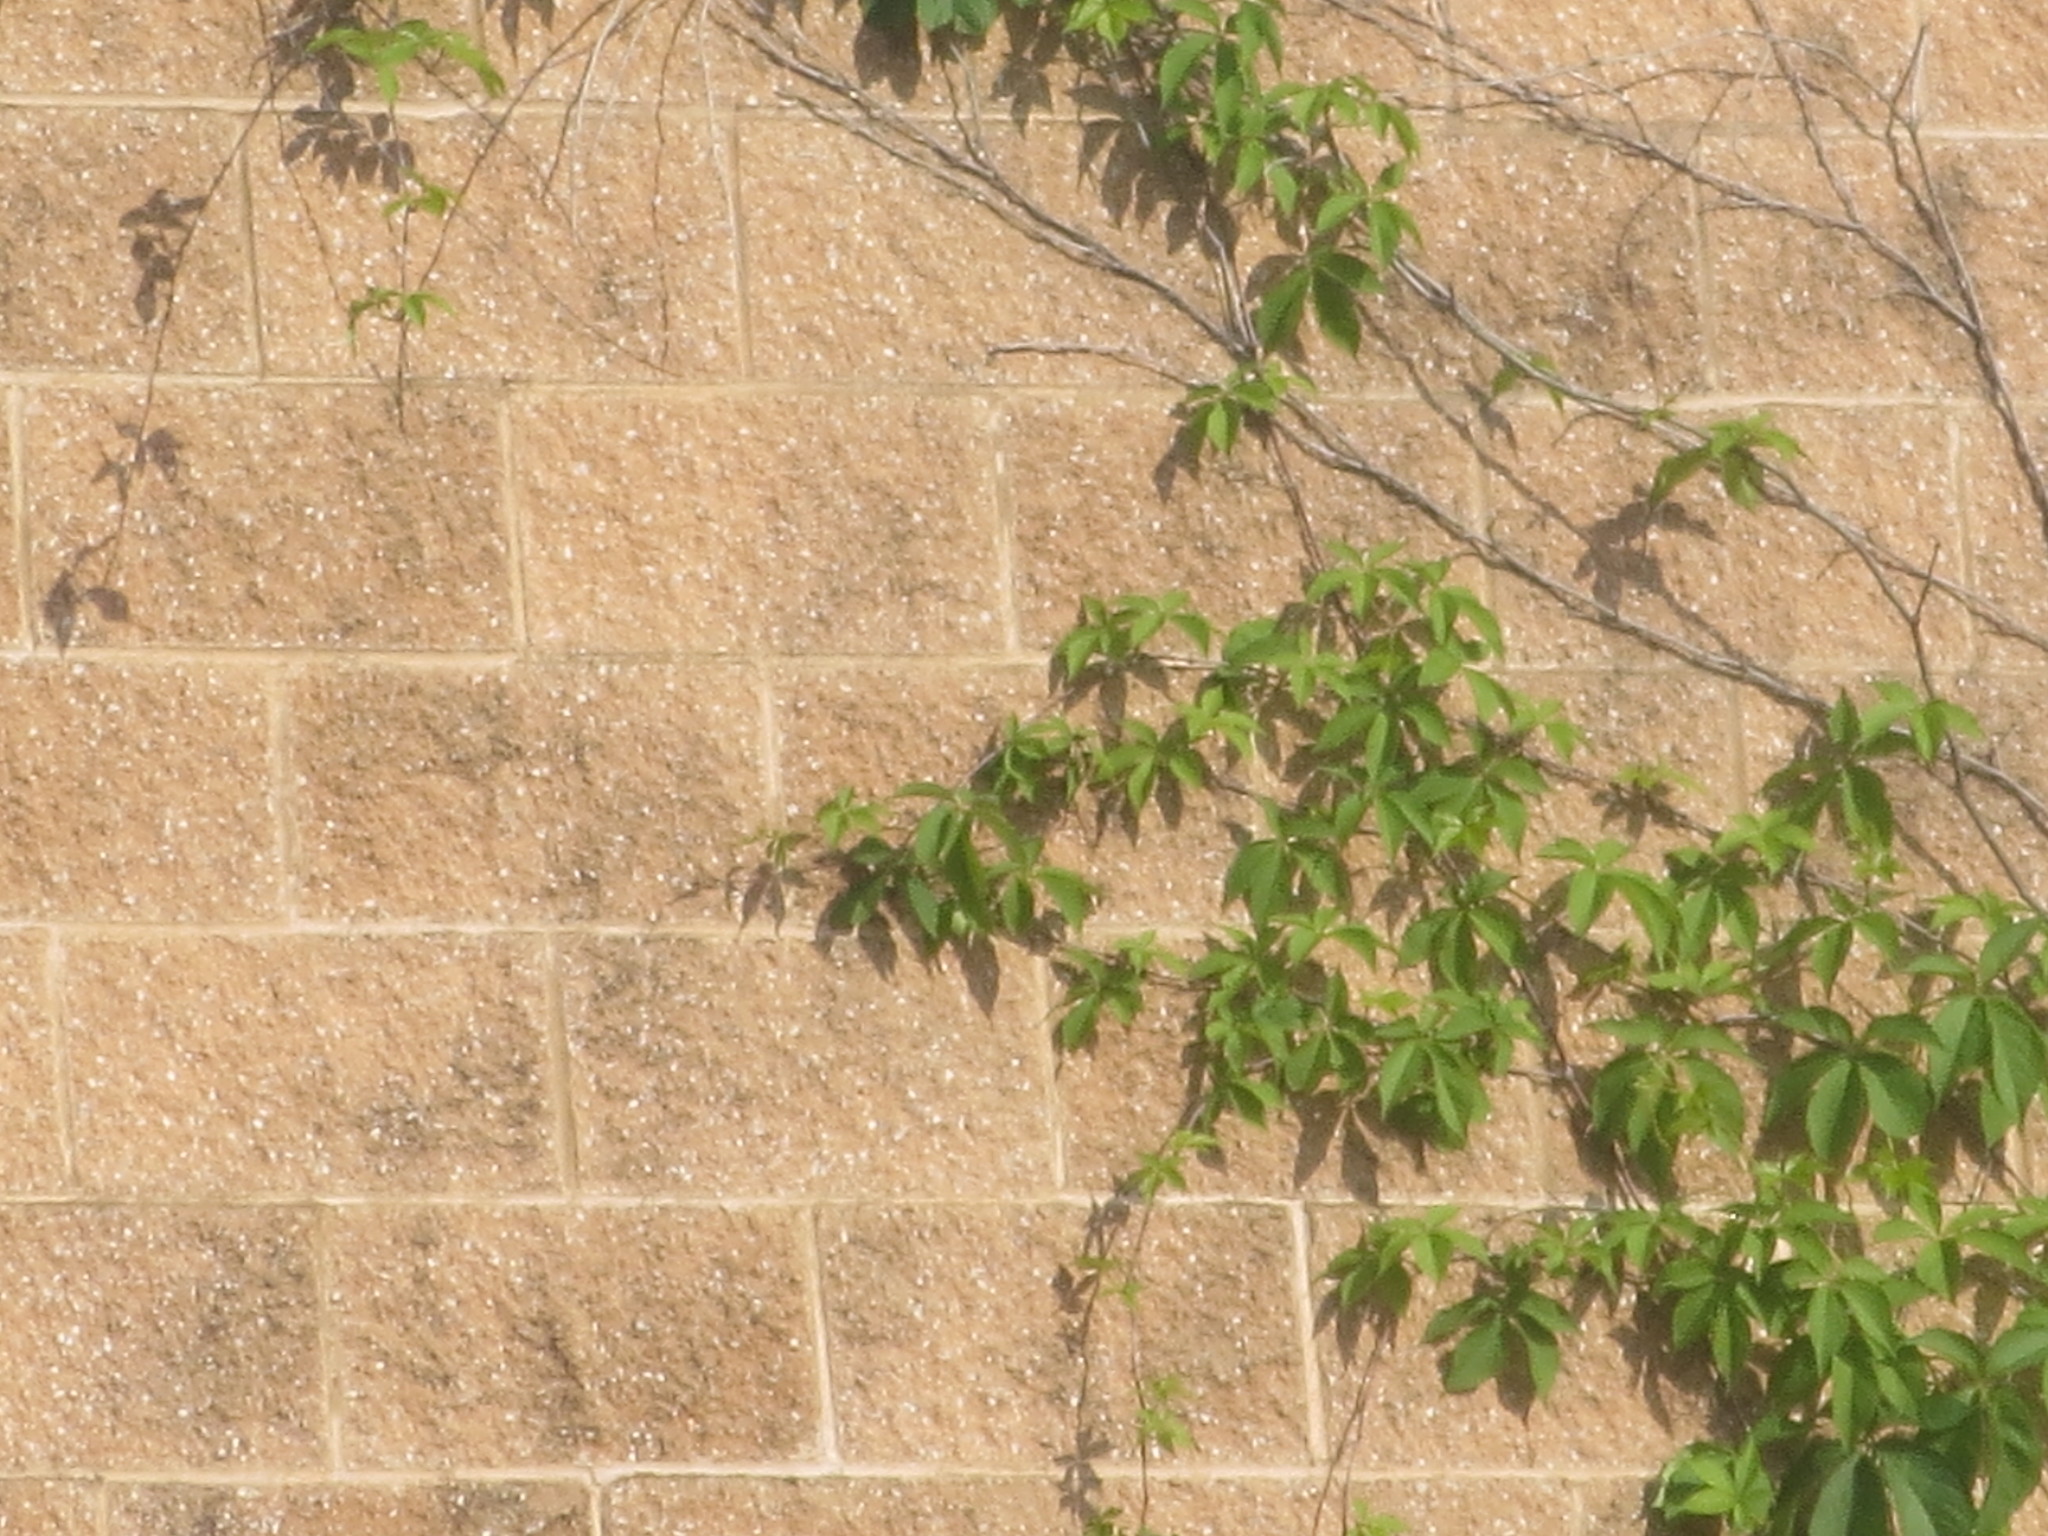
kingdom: Plantae
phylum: Tracheophyta
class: Magnoliopsida
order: Vitales
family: Vitaceae
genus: Parthenocissus
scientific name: Parthenocissus quinquefolia
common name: Virginia-creeper
